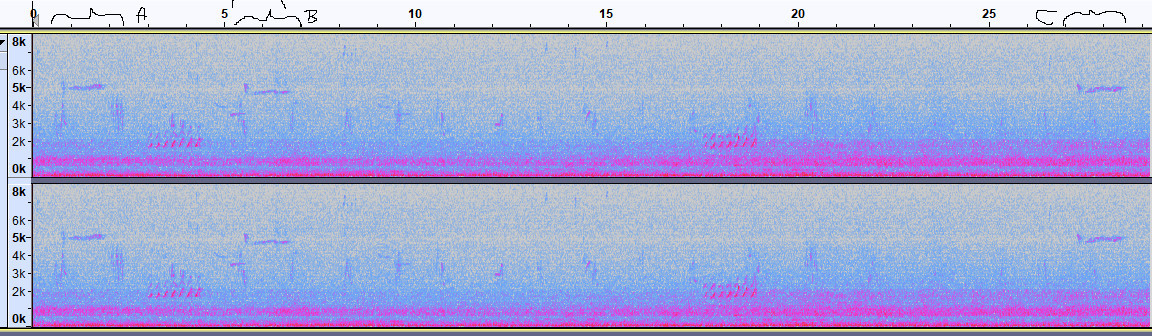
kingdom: Animalia
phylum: Chordata
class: Aves
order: Accipitriformes
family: Accipitridae
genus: Buteo
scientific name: Buteo platypterus
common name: Broad-winged hawk
